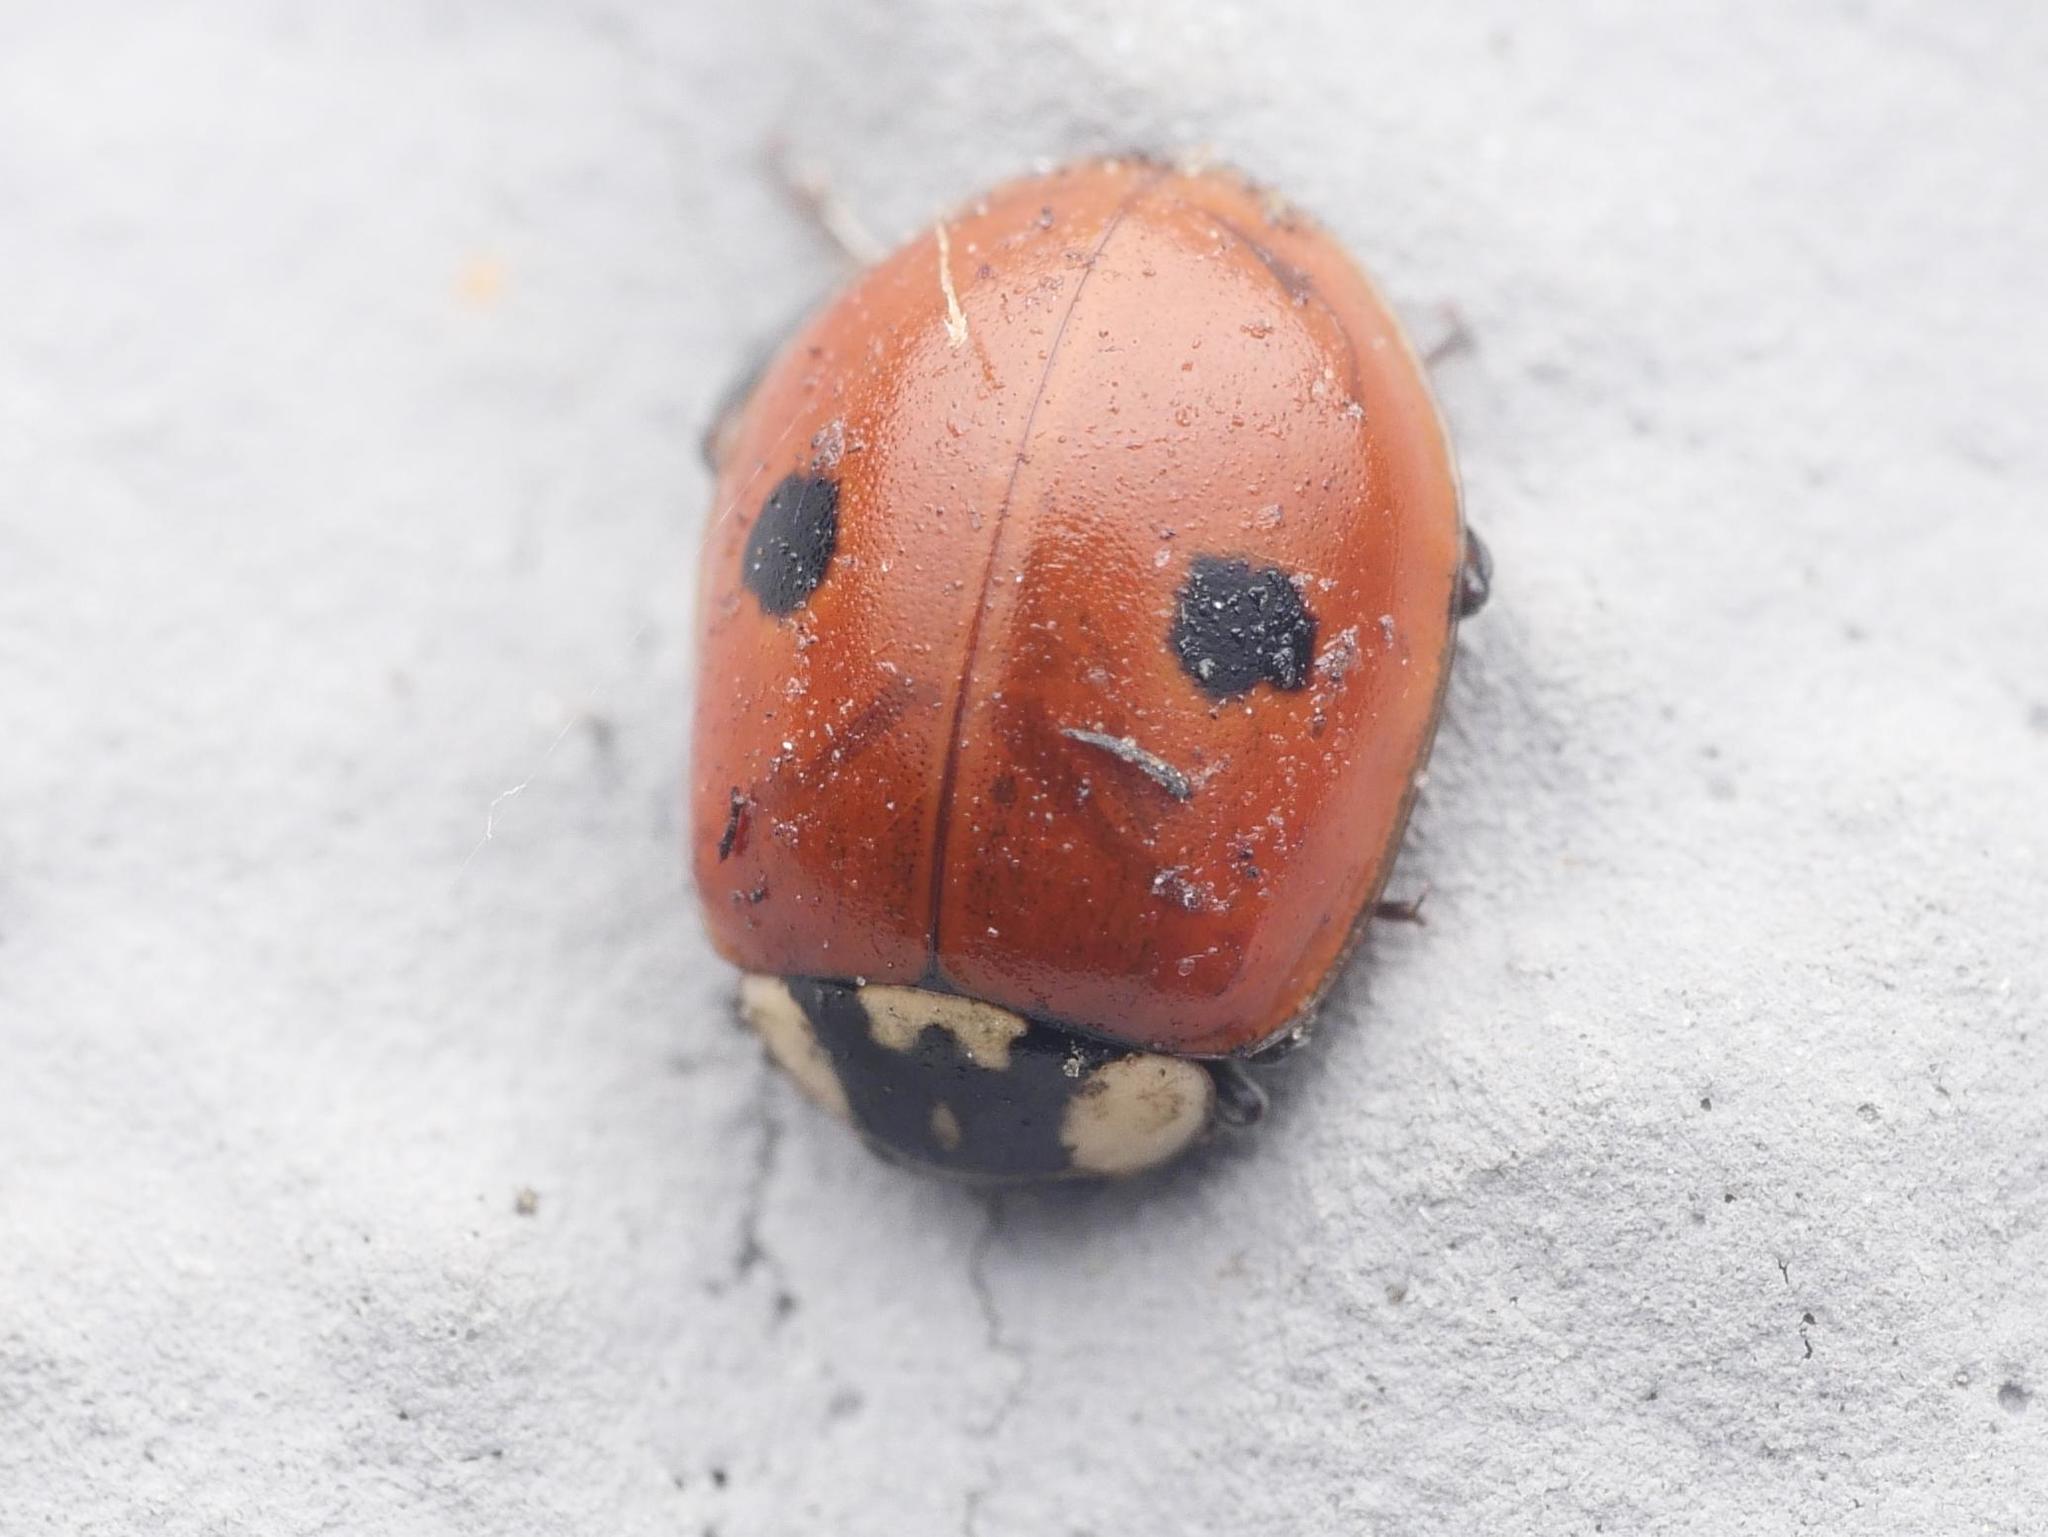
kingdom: Animalia
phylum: Arthropoda
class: Insecta
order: Coleoptera
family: Coccinellidae
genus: Adalia
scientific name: Adalia bipunctata
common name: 2-spot ladybird
